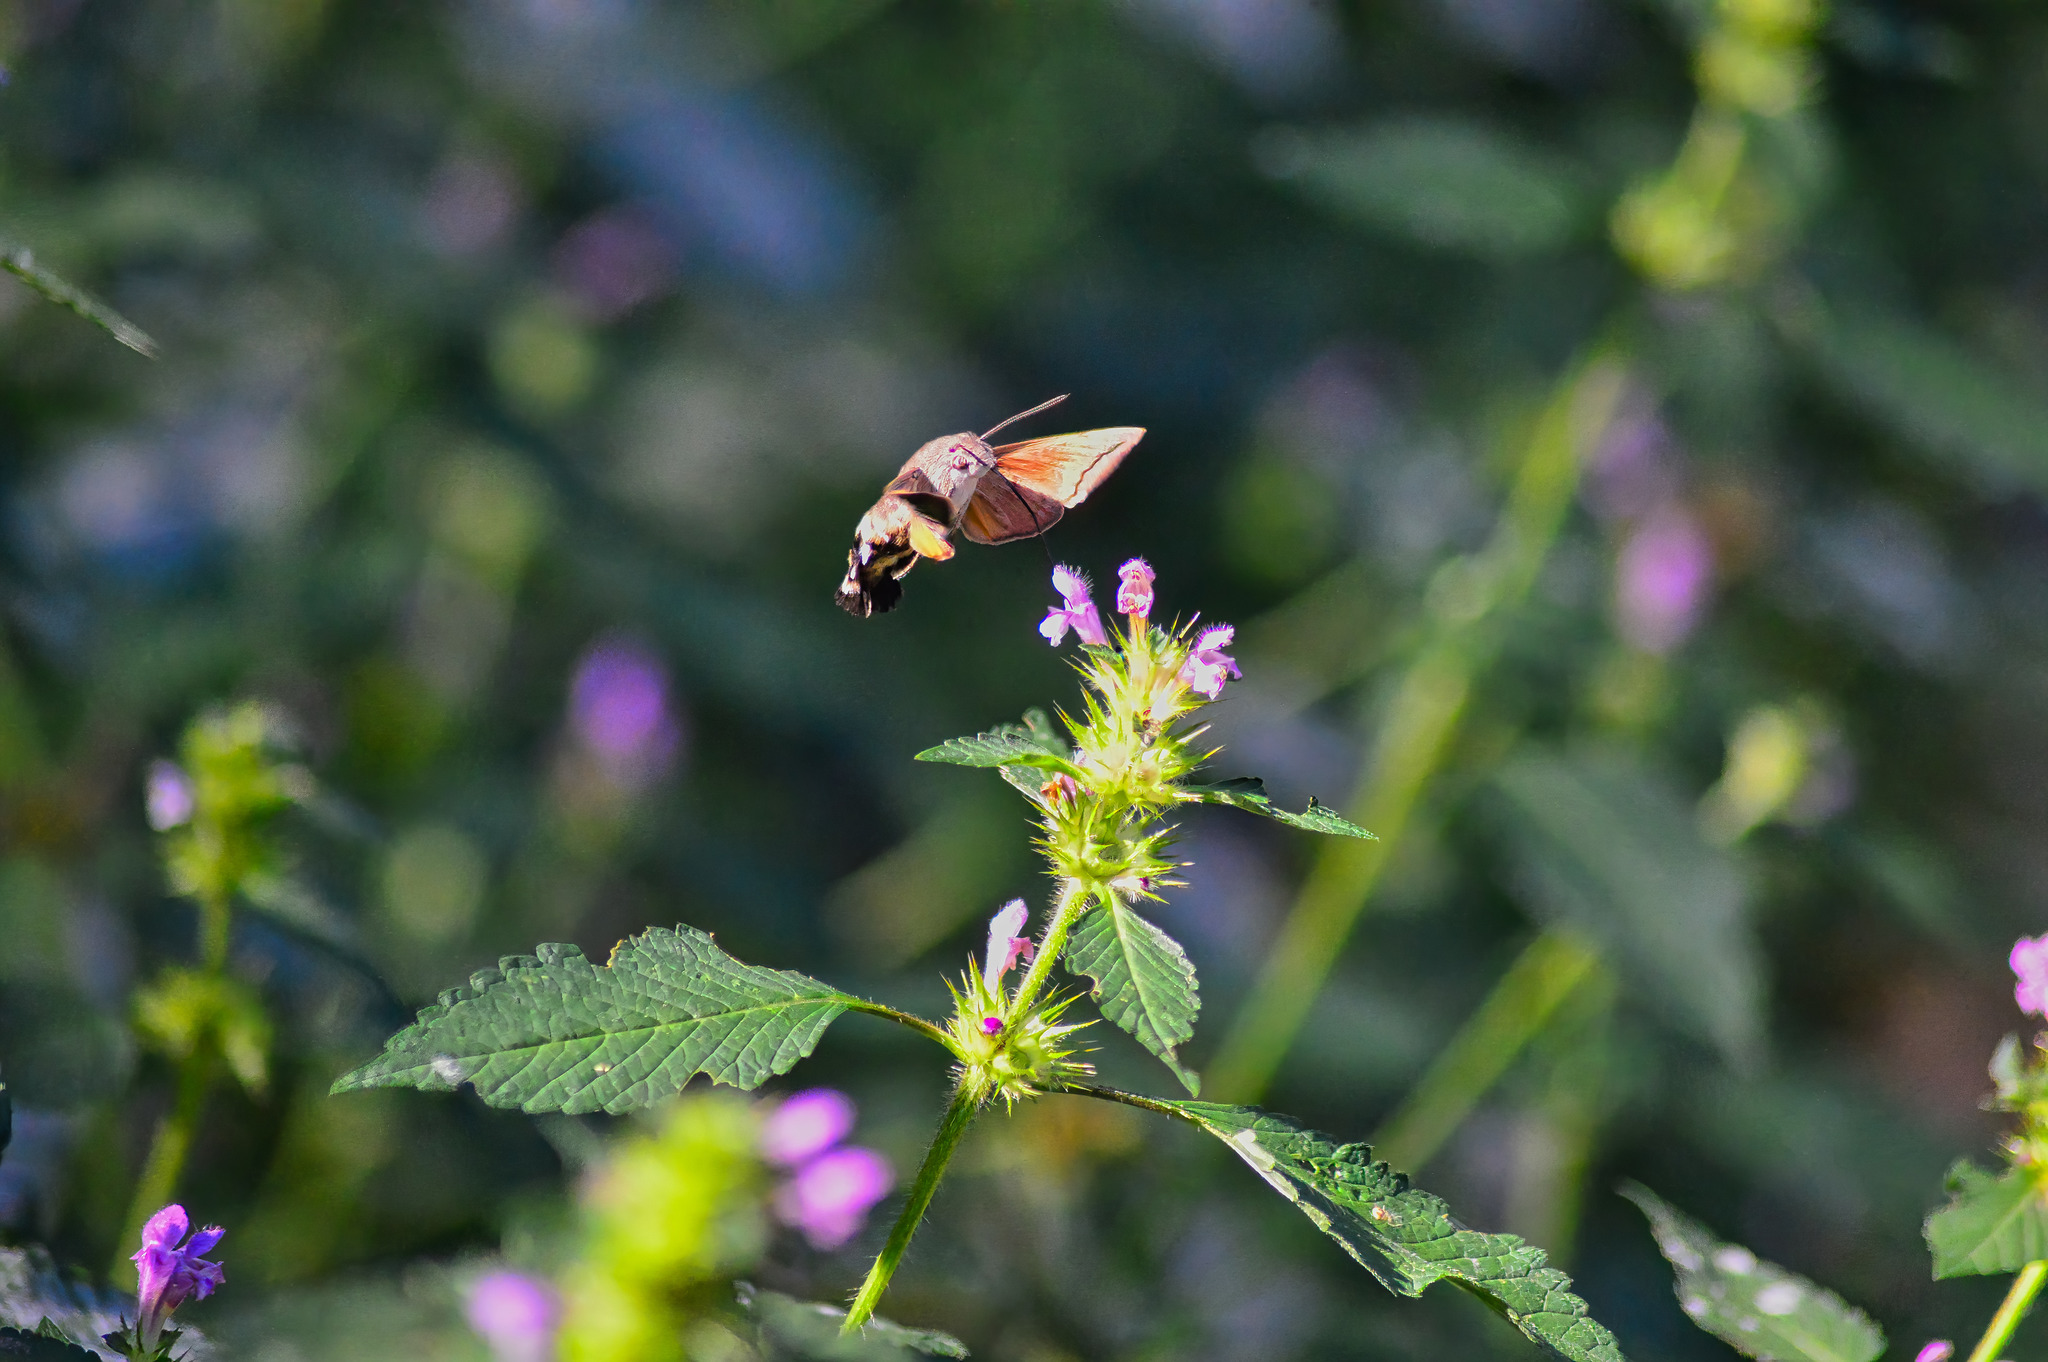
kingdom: Animalia
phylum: Arthropoda
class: Insecta
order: Lepidoptera
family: Sphingidae
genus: Macroglossum
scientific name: Macroglossum stellatarum
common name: Humming-bird hawk-moth
